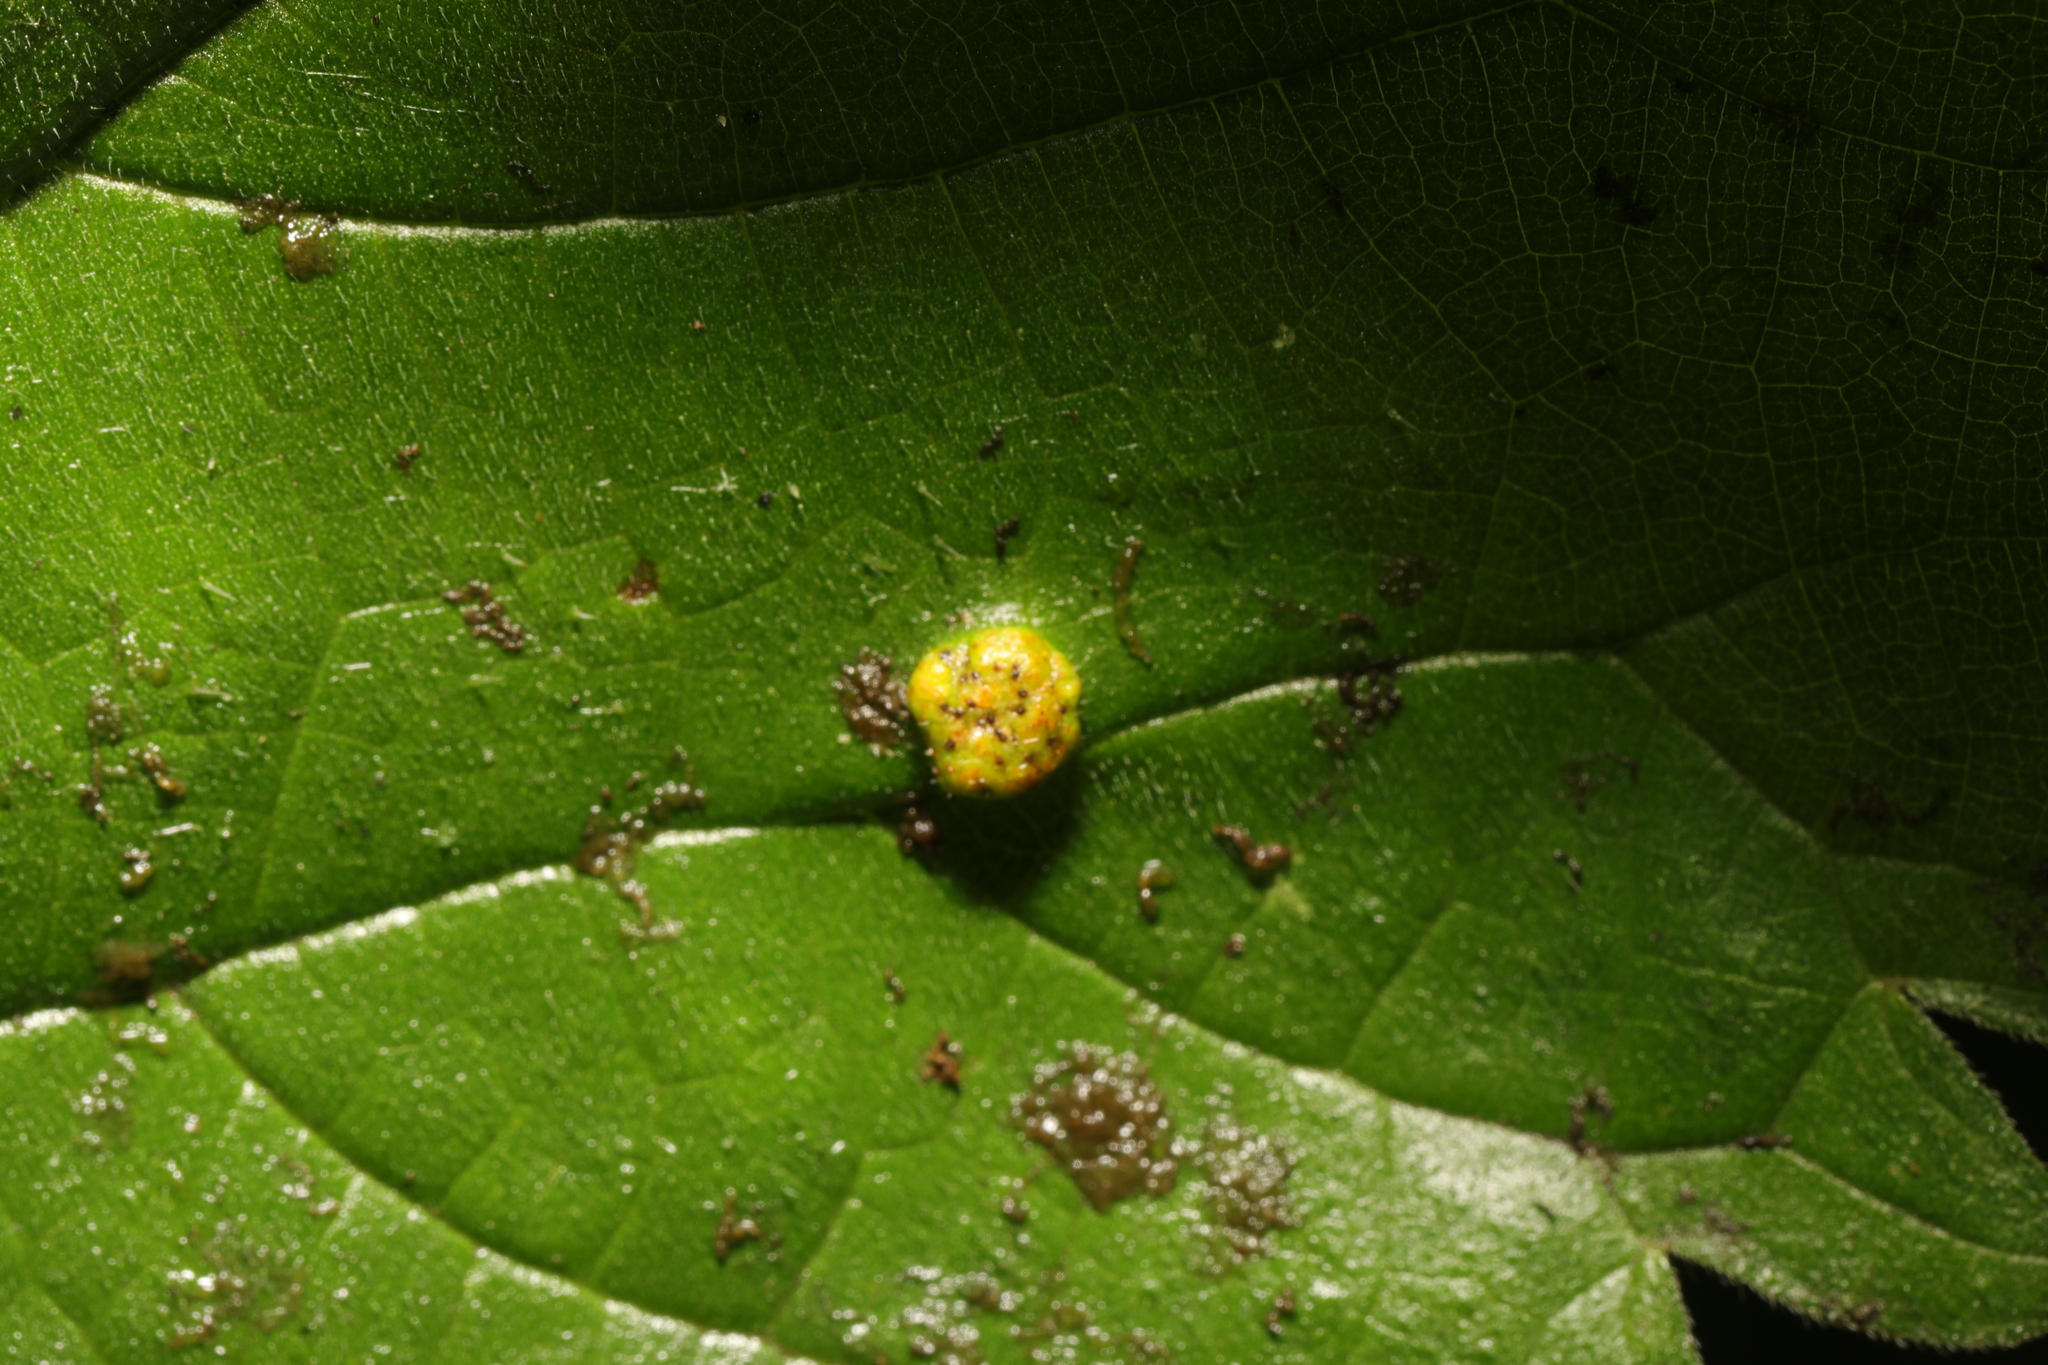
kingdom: Animalia
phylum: Arthropoda
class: Insecta
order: Diptera
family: Cecidomyiidae
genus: Dasineura
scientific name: Dasineura urticae
